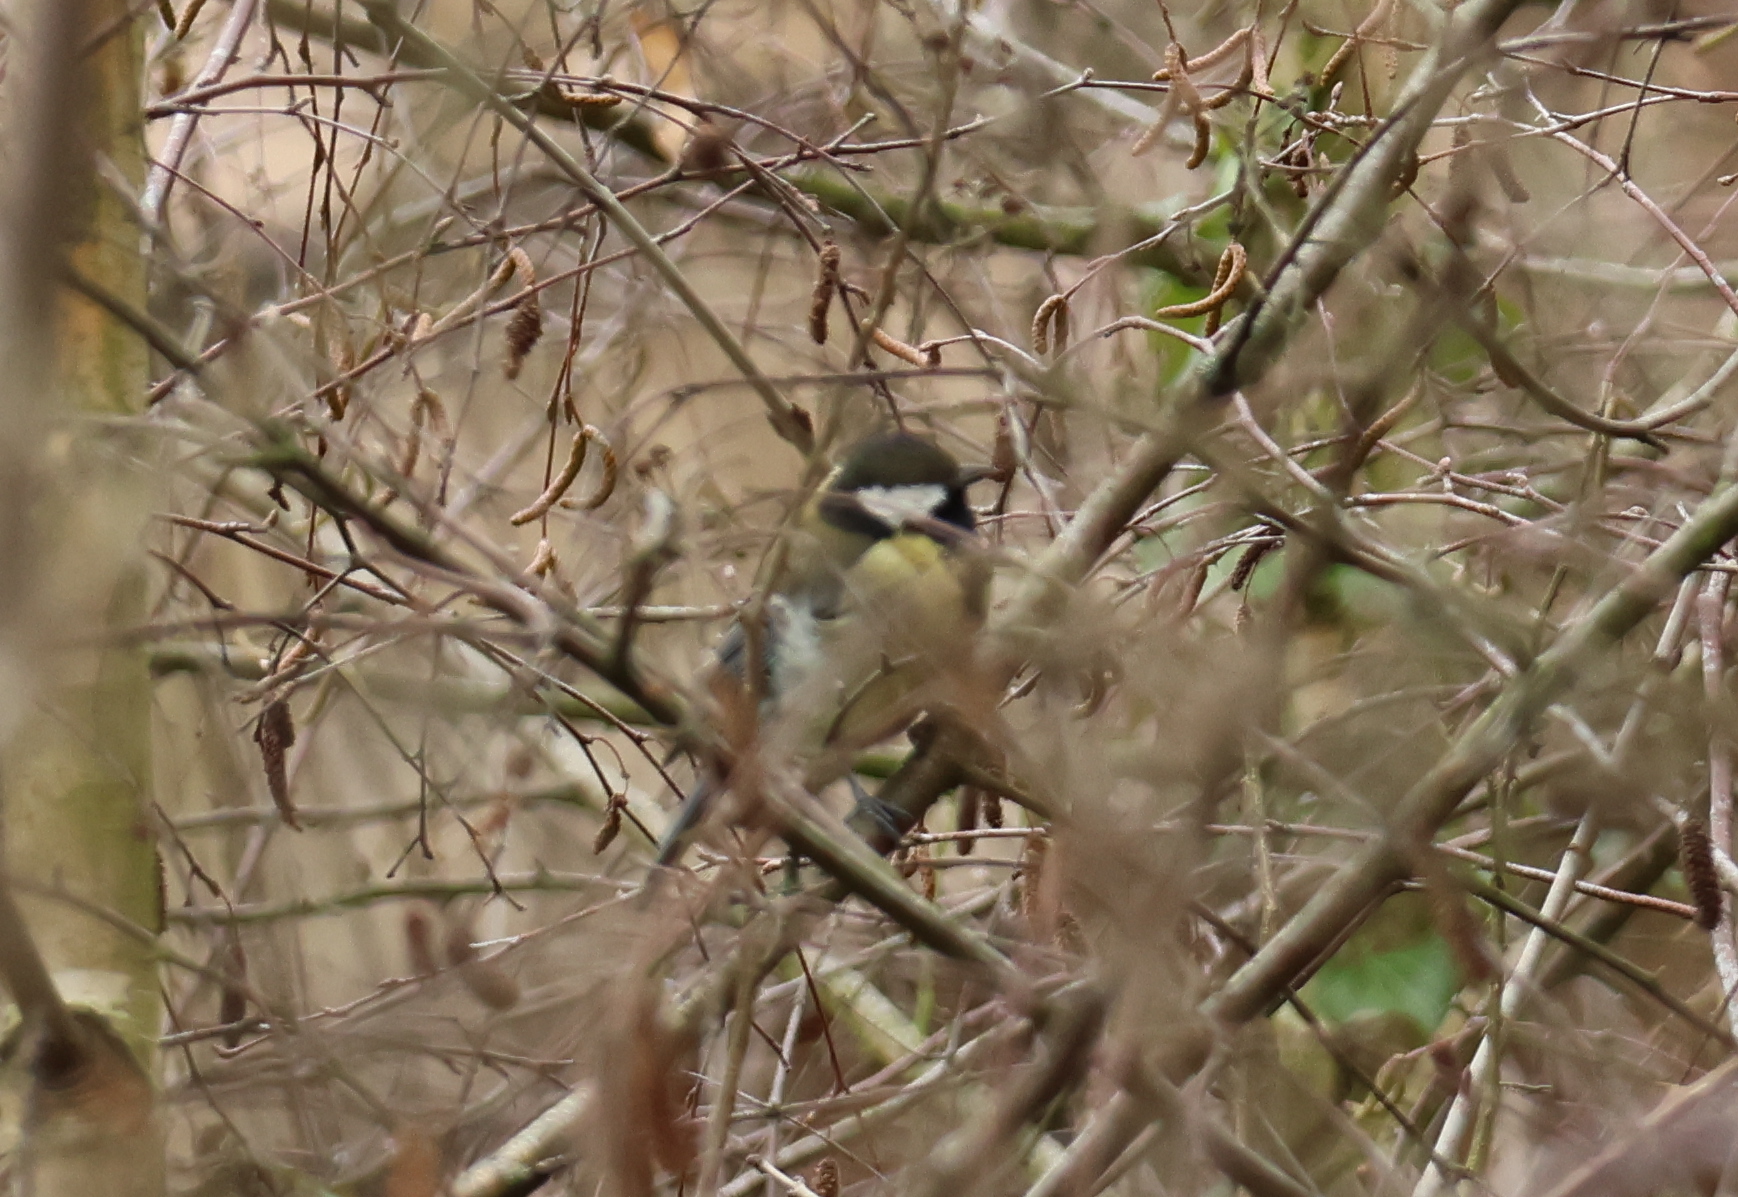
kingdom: Animalia
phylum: Chordata
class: Aves
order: Passeriformes
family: Paridae
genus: Parus
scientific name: Parus major
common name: Great tit
